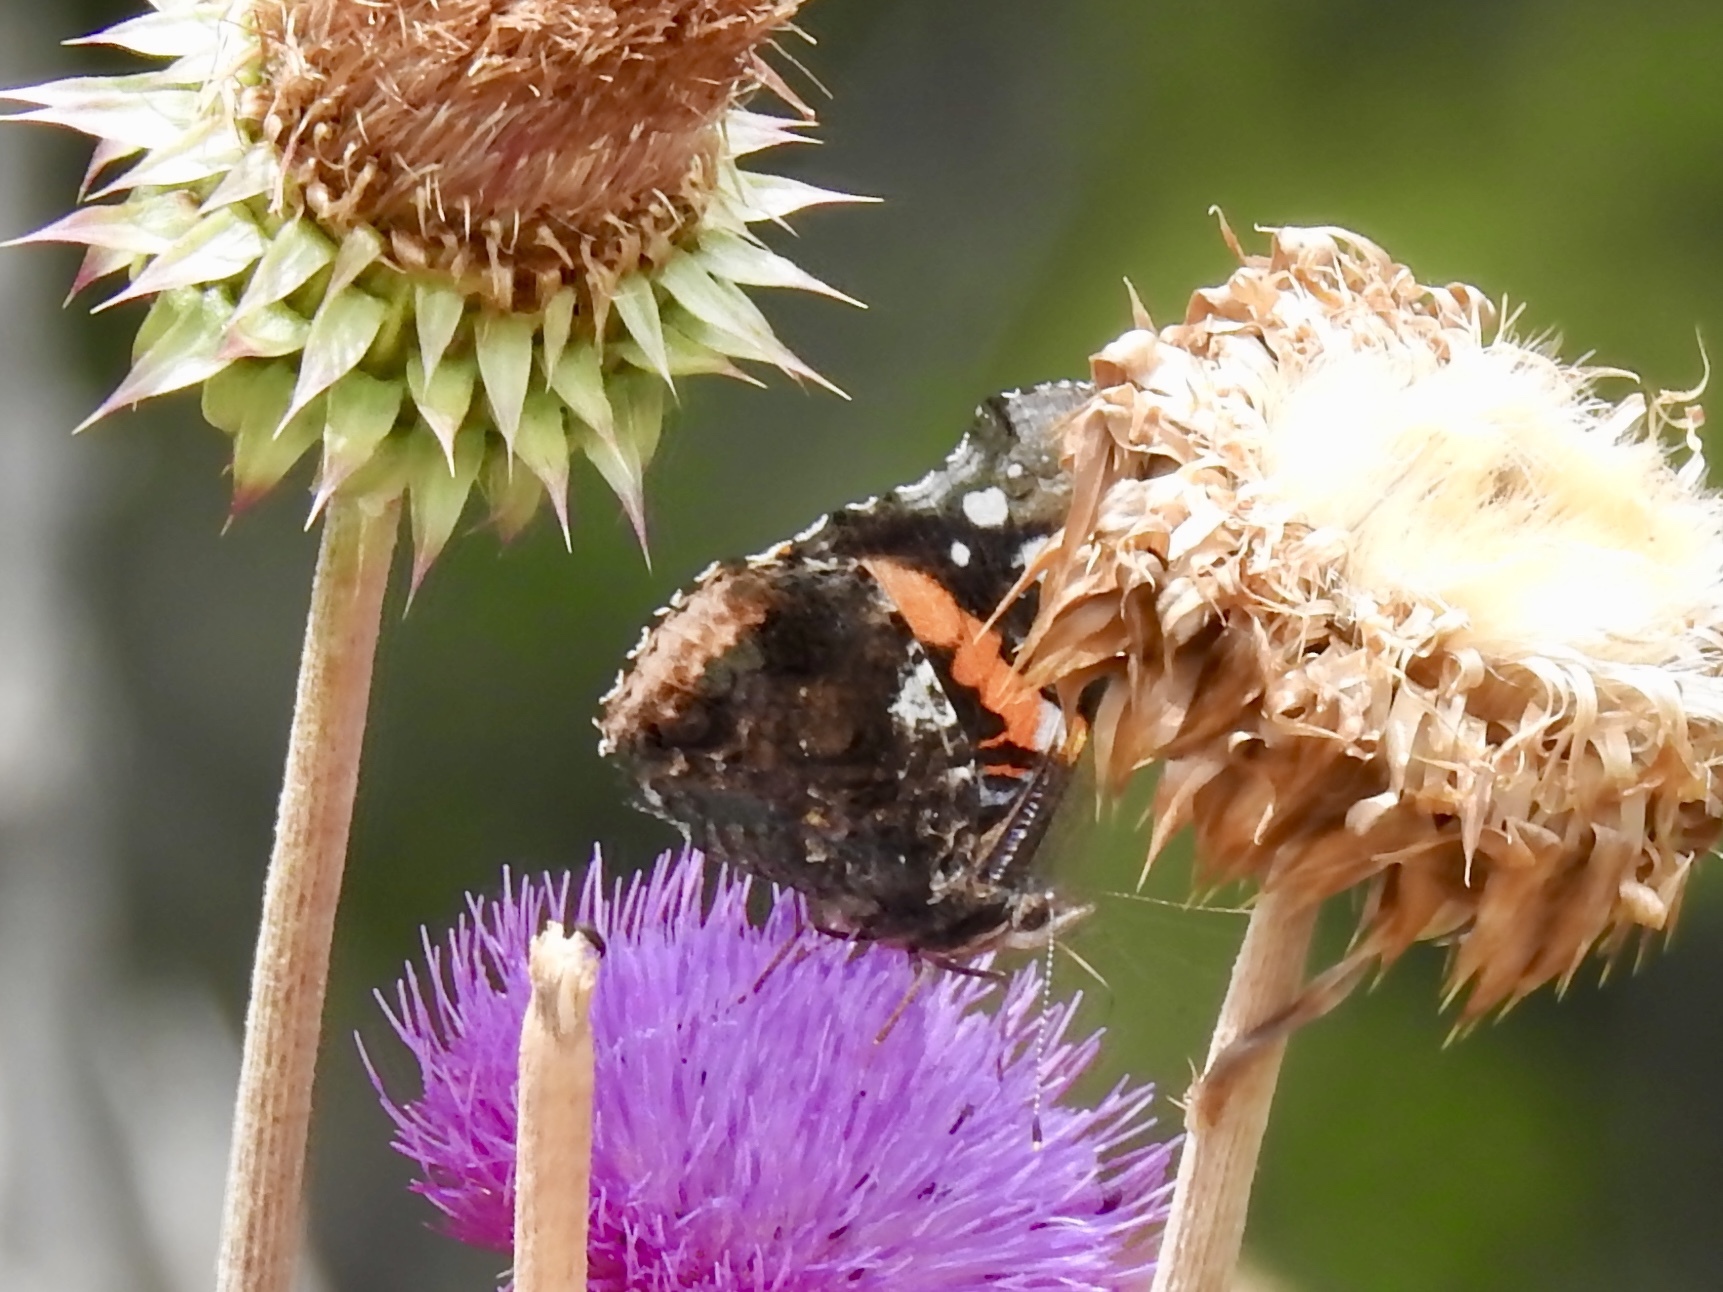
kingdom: Animalia
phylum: Arthropoda
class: Insecta
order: Lepidoptera
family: Nymphalidae
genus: Vanessa
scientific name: Vanessa atalanta
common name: Red admiral
